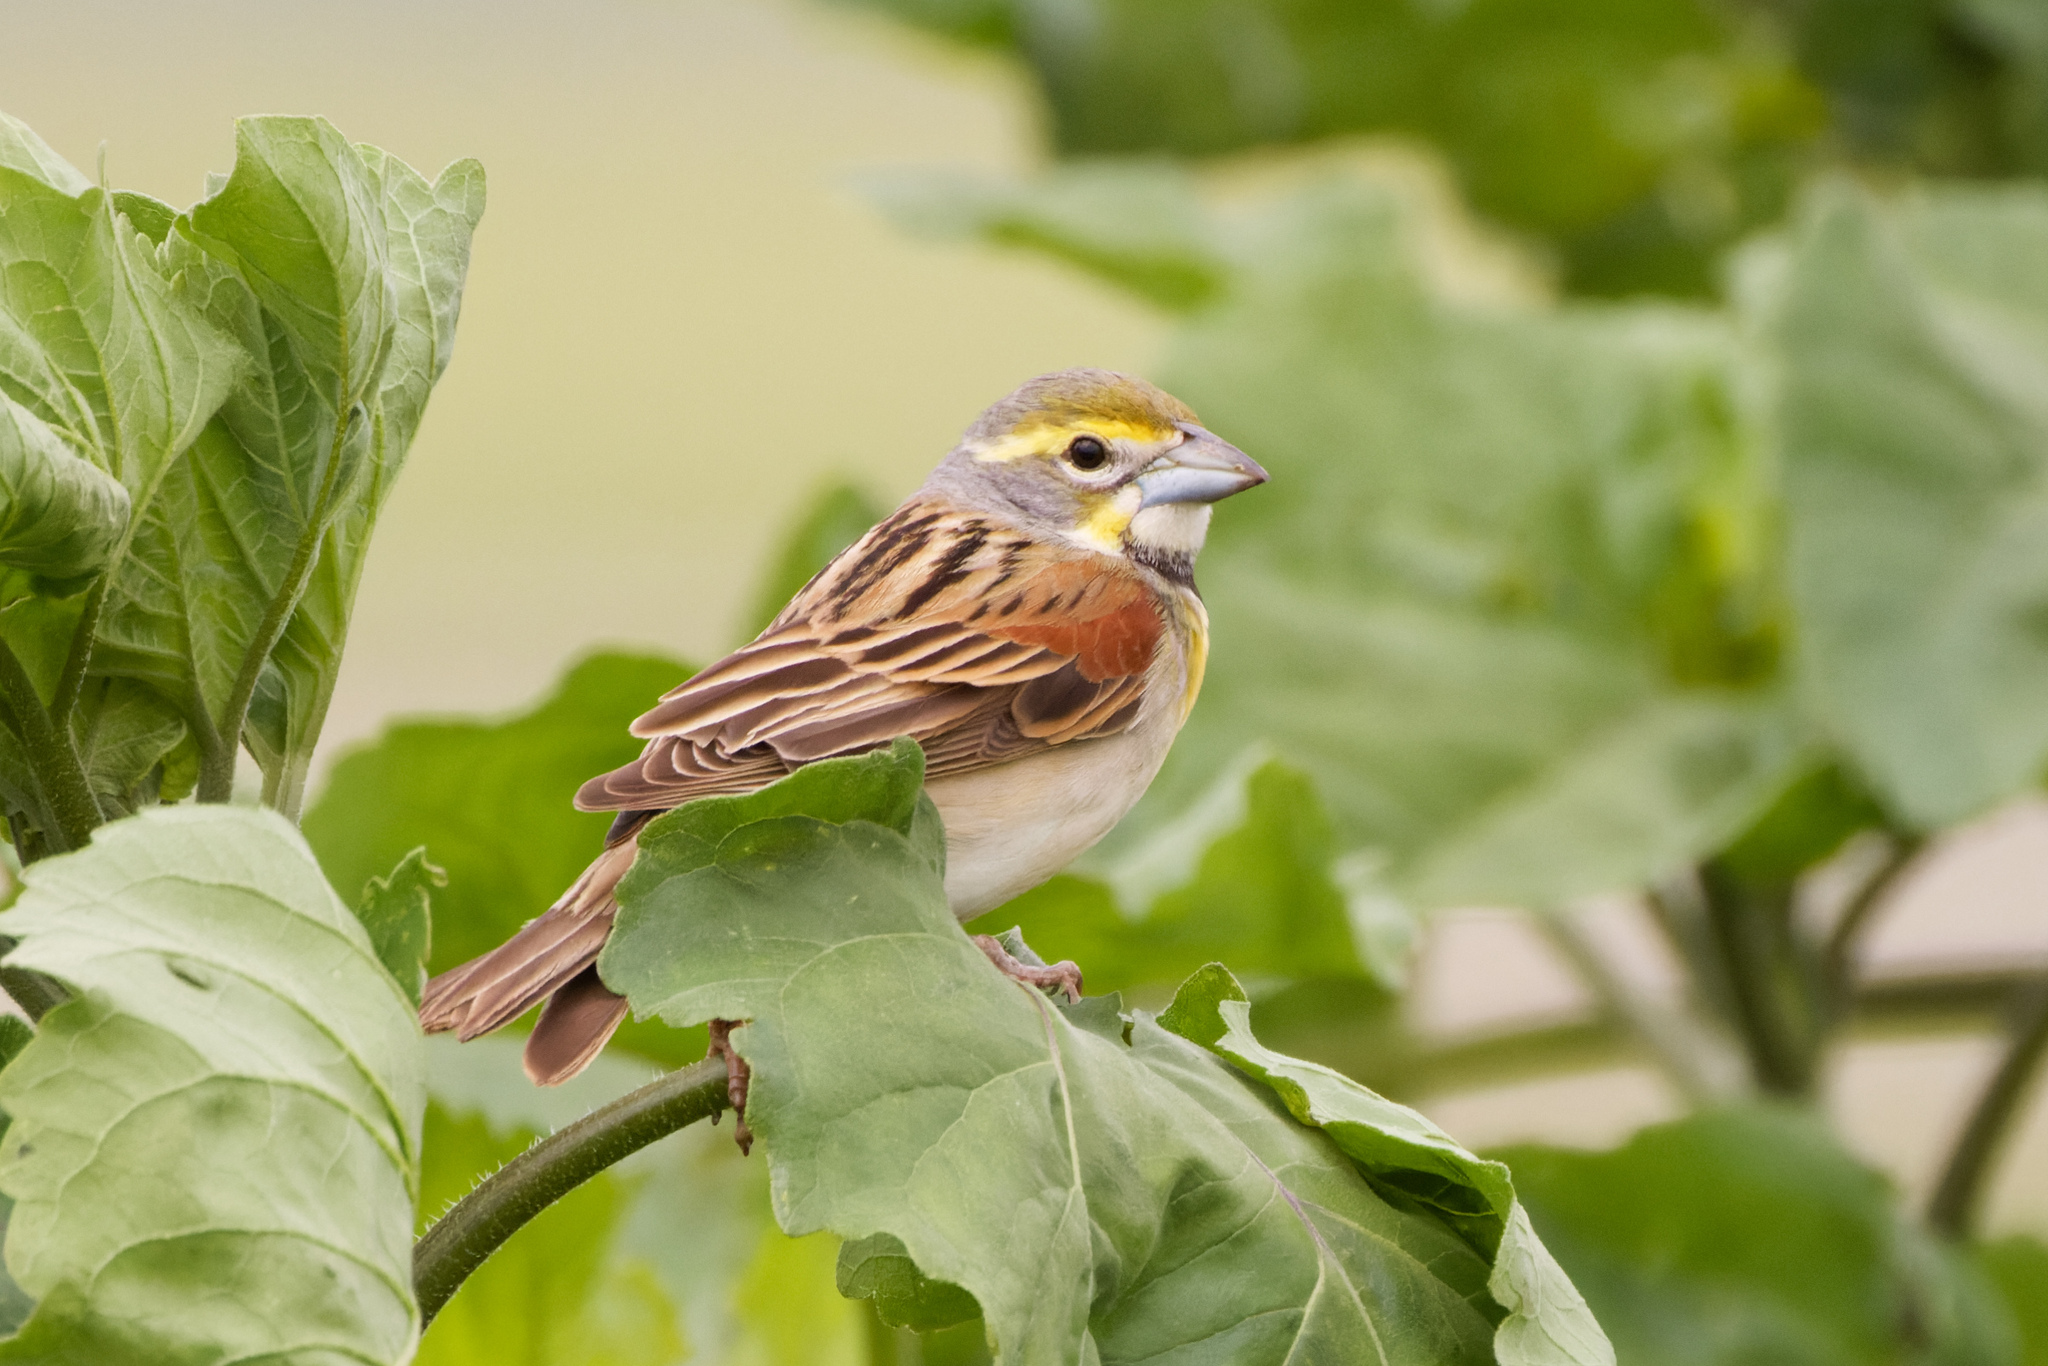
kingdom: Animalia
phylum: Chordata
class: Aves
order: Passeriformes
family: Cardinalidae
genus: Spiza
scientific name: Spiza americana
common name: Dickcissel
